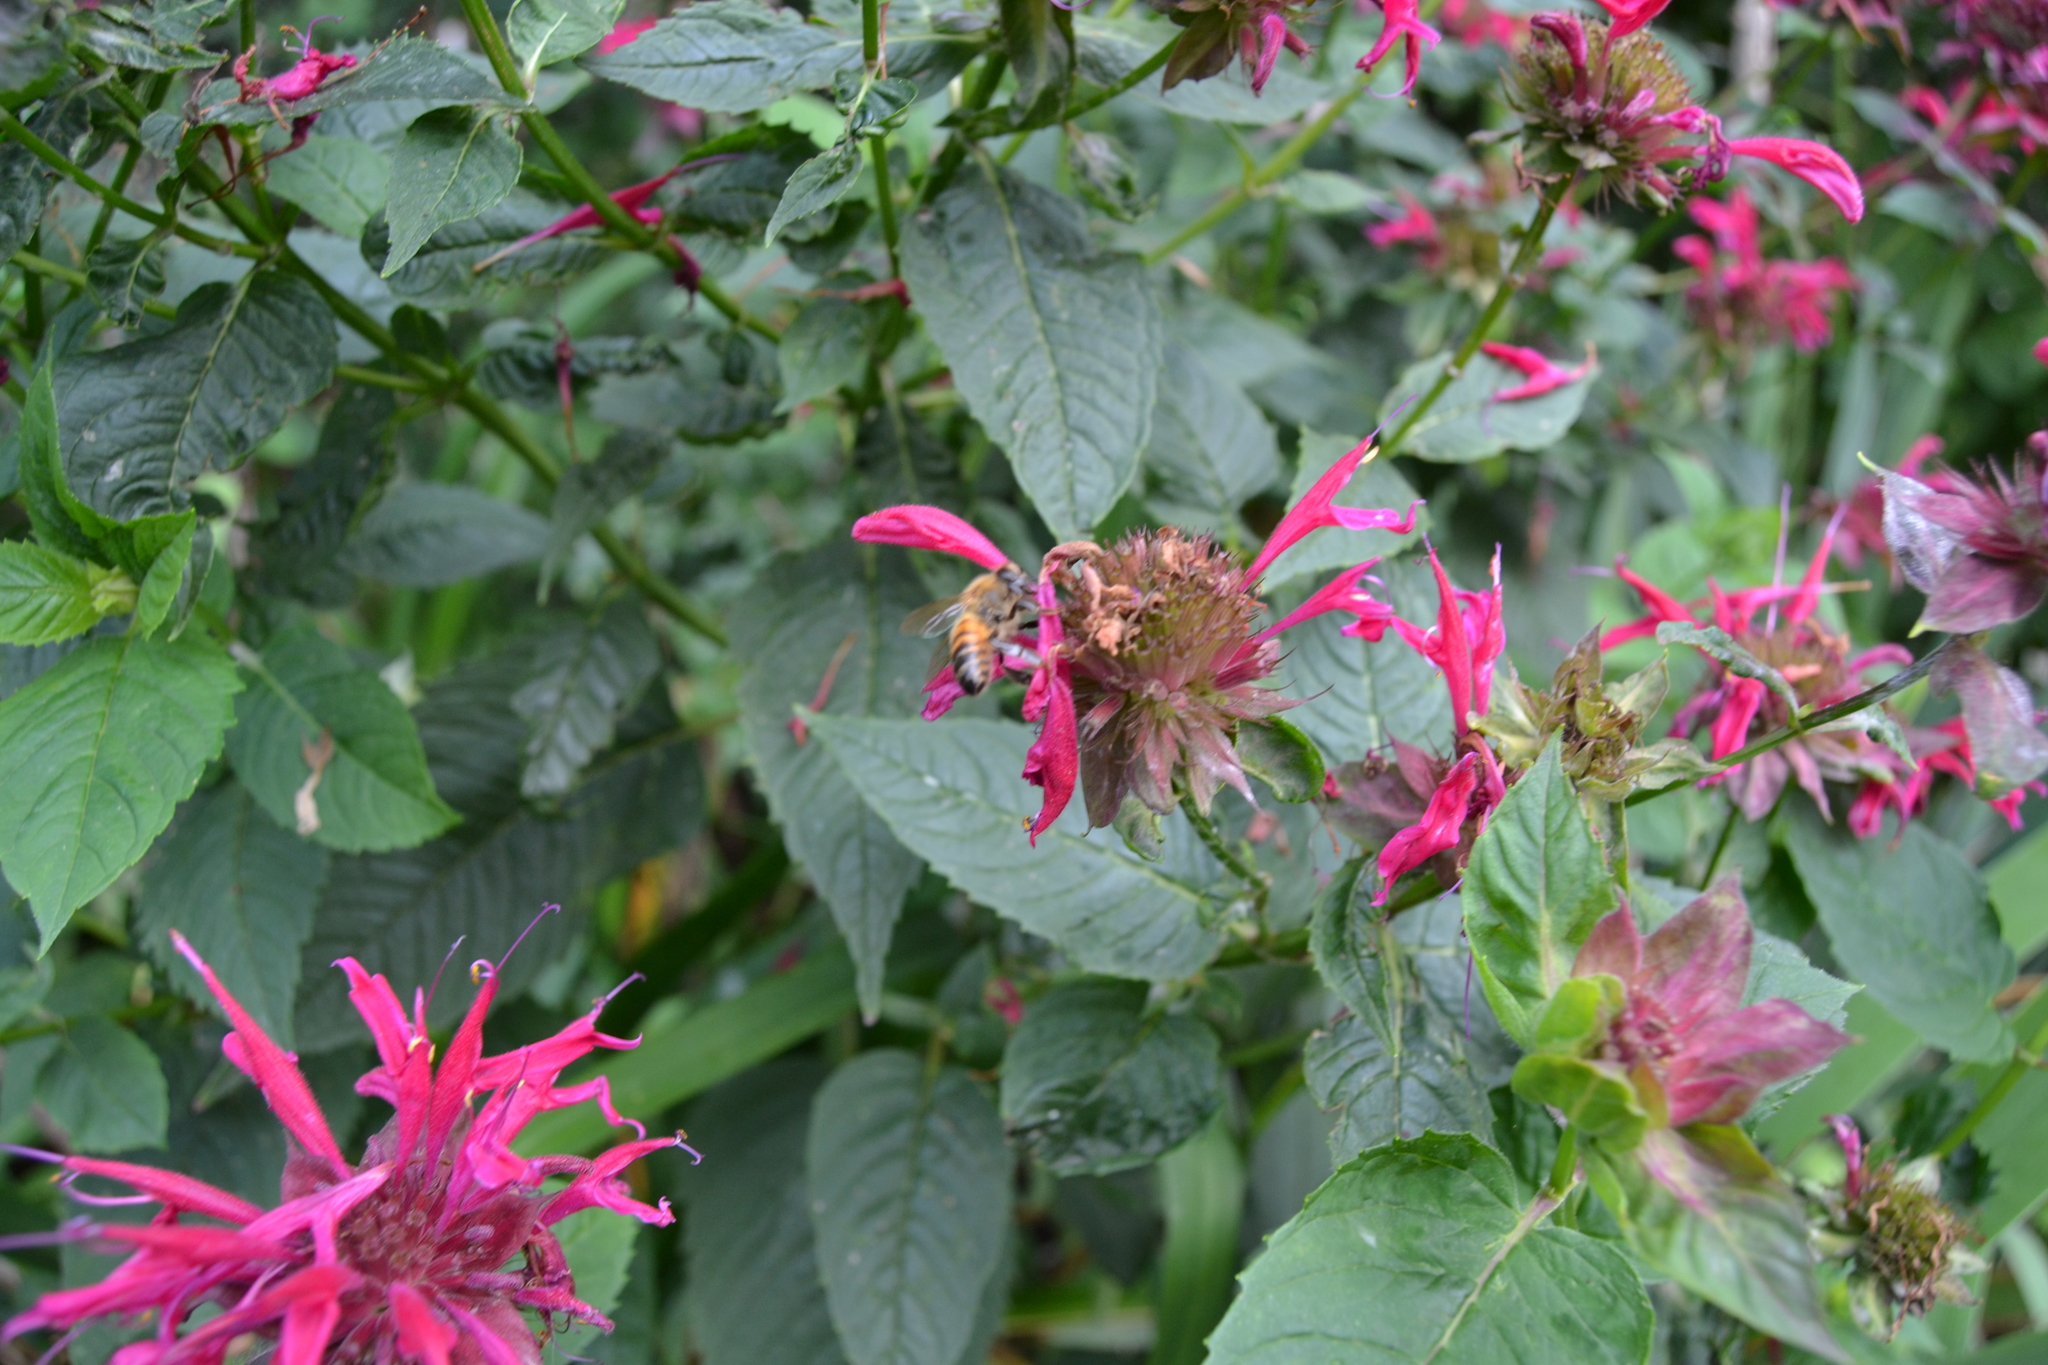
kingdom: Animalia
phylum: Arthropoda
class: Insecta
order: Hymenoptera
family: Apidae
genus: Apis
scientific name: Apis mellifera
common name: Honey bee
